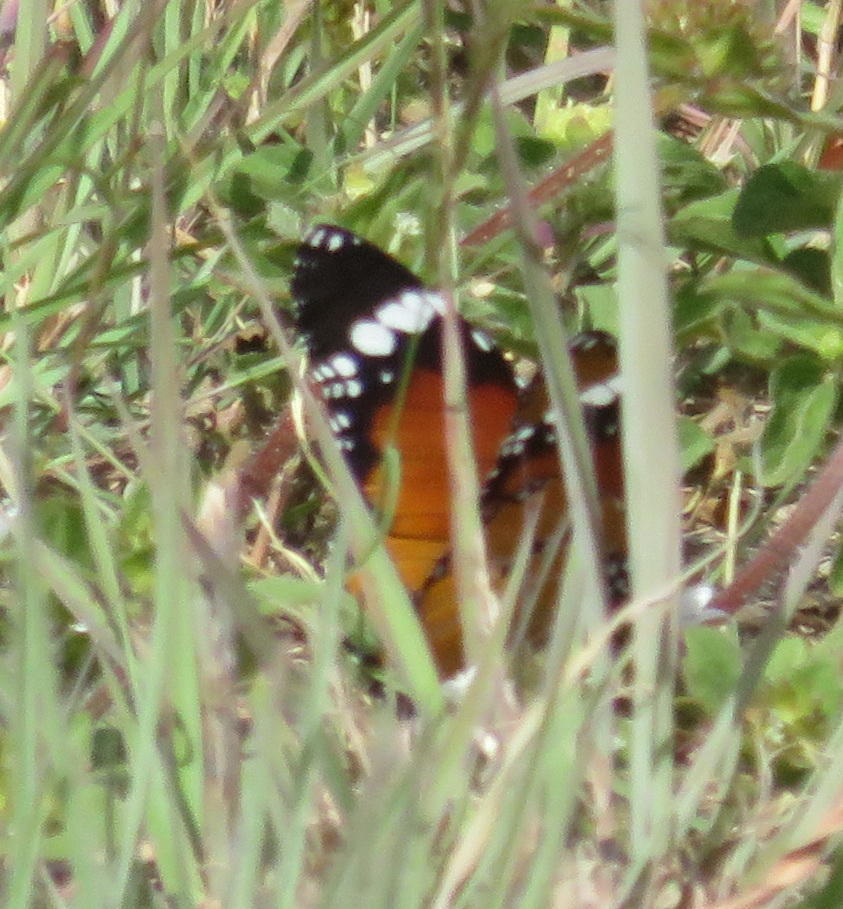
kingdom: Animalia
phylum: Arthropoda
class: Insecta
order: Lepidoptera
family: Nymphalidae
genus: Danaus
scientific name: Danaus chrysippus
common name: Plain tiger
